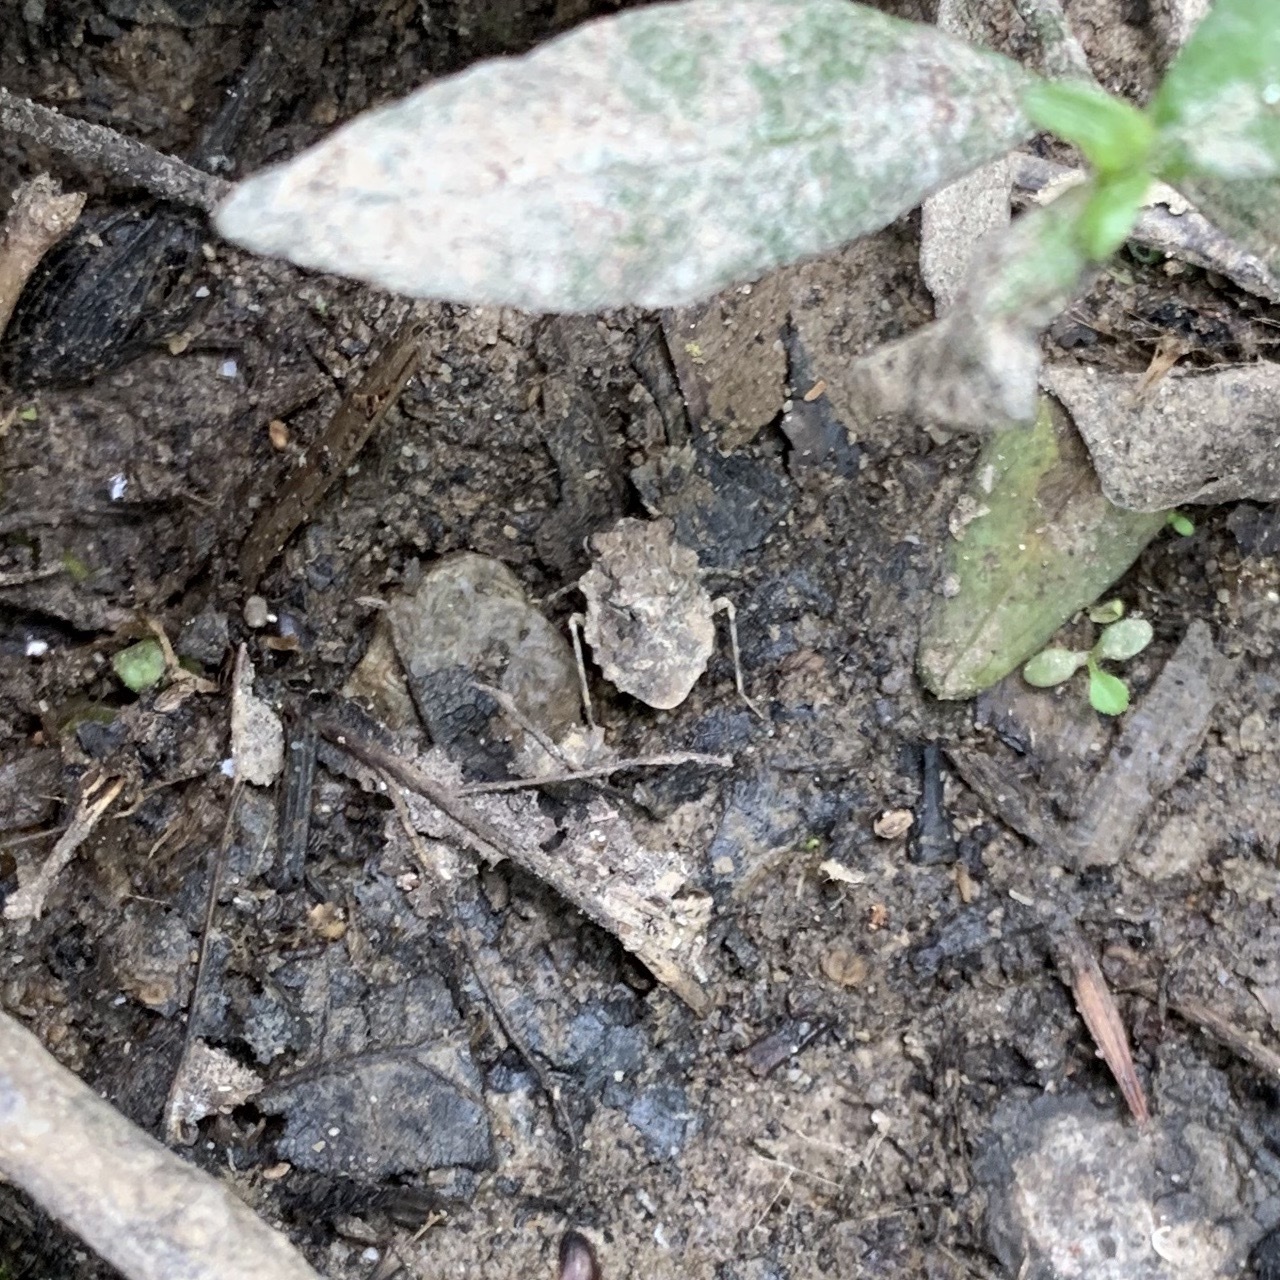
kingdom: Animalia
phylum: Arthropoda
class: Insecta
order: Hemiptera
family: Gelastocoridae
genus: Gelastocoris
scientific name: Gelastocoris oculatus
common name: Toad bug
